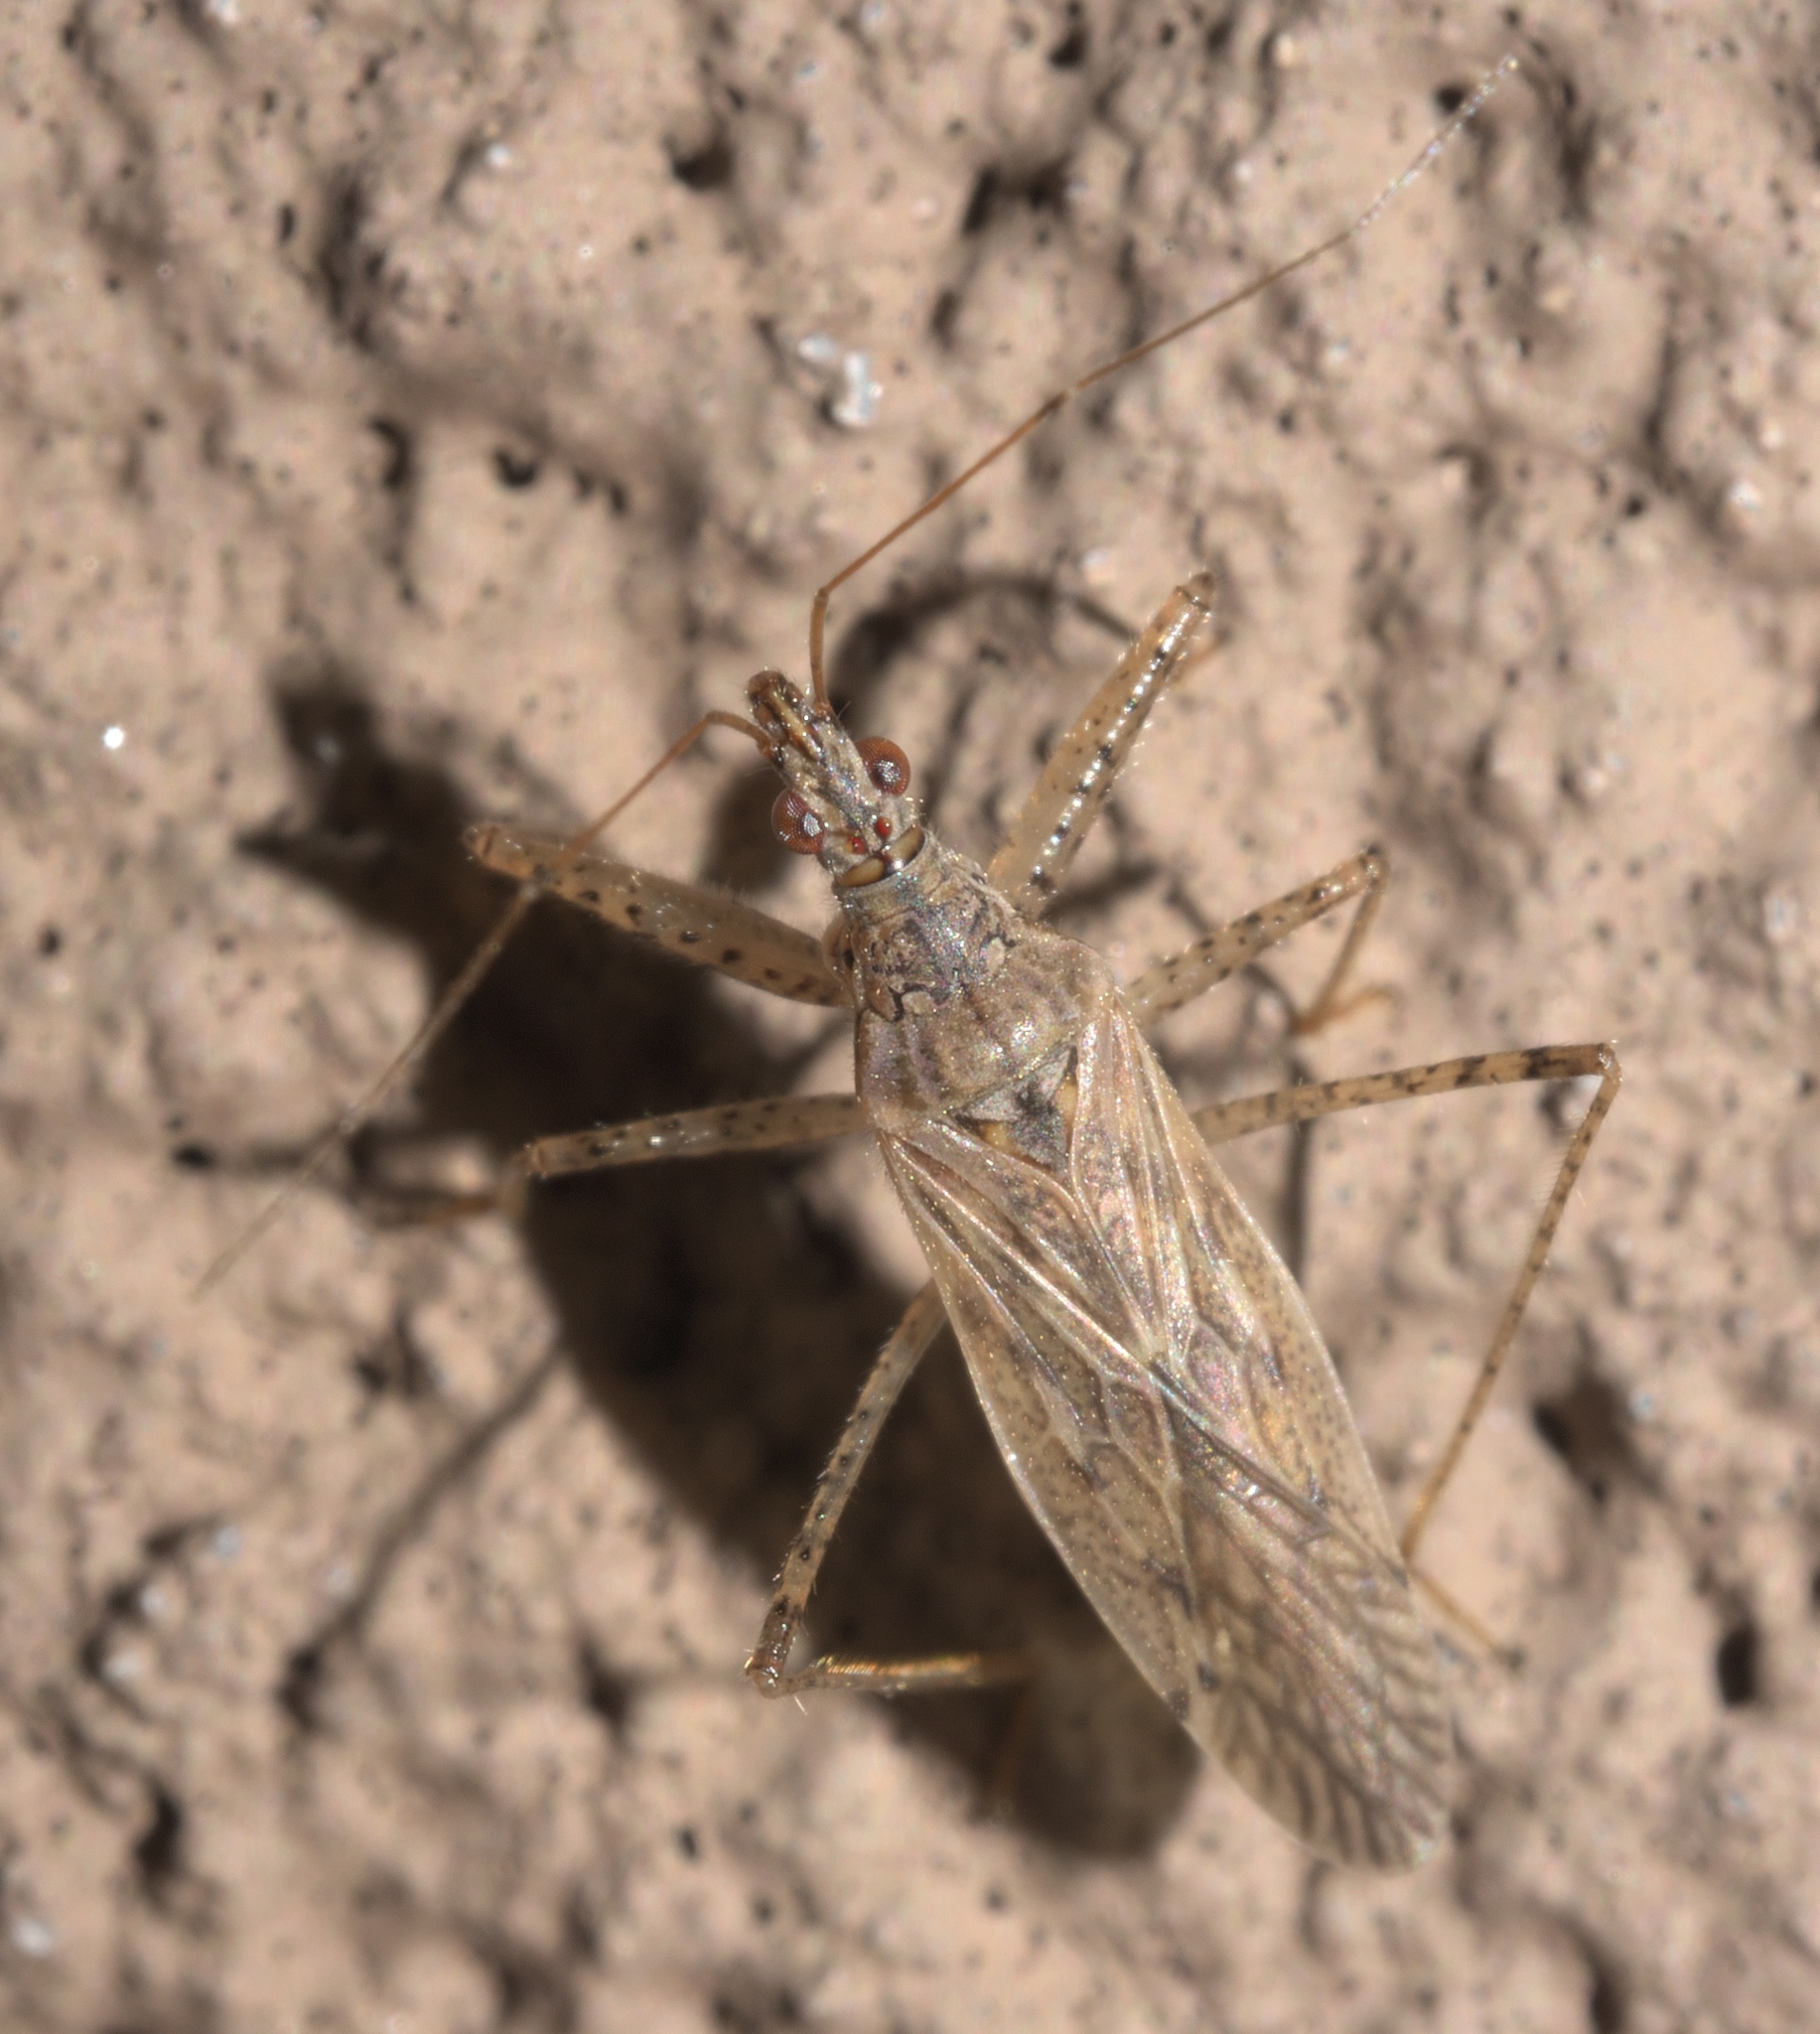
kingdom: Animalia
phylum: Arthropoda
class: Insecta
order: Hemiptera
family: Nabidae
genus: Nabis
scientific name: Nabis roseipennis
